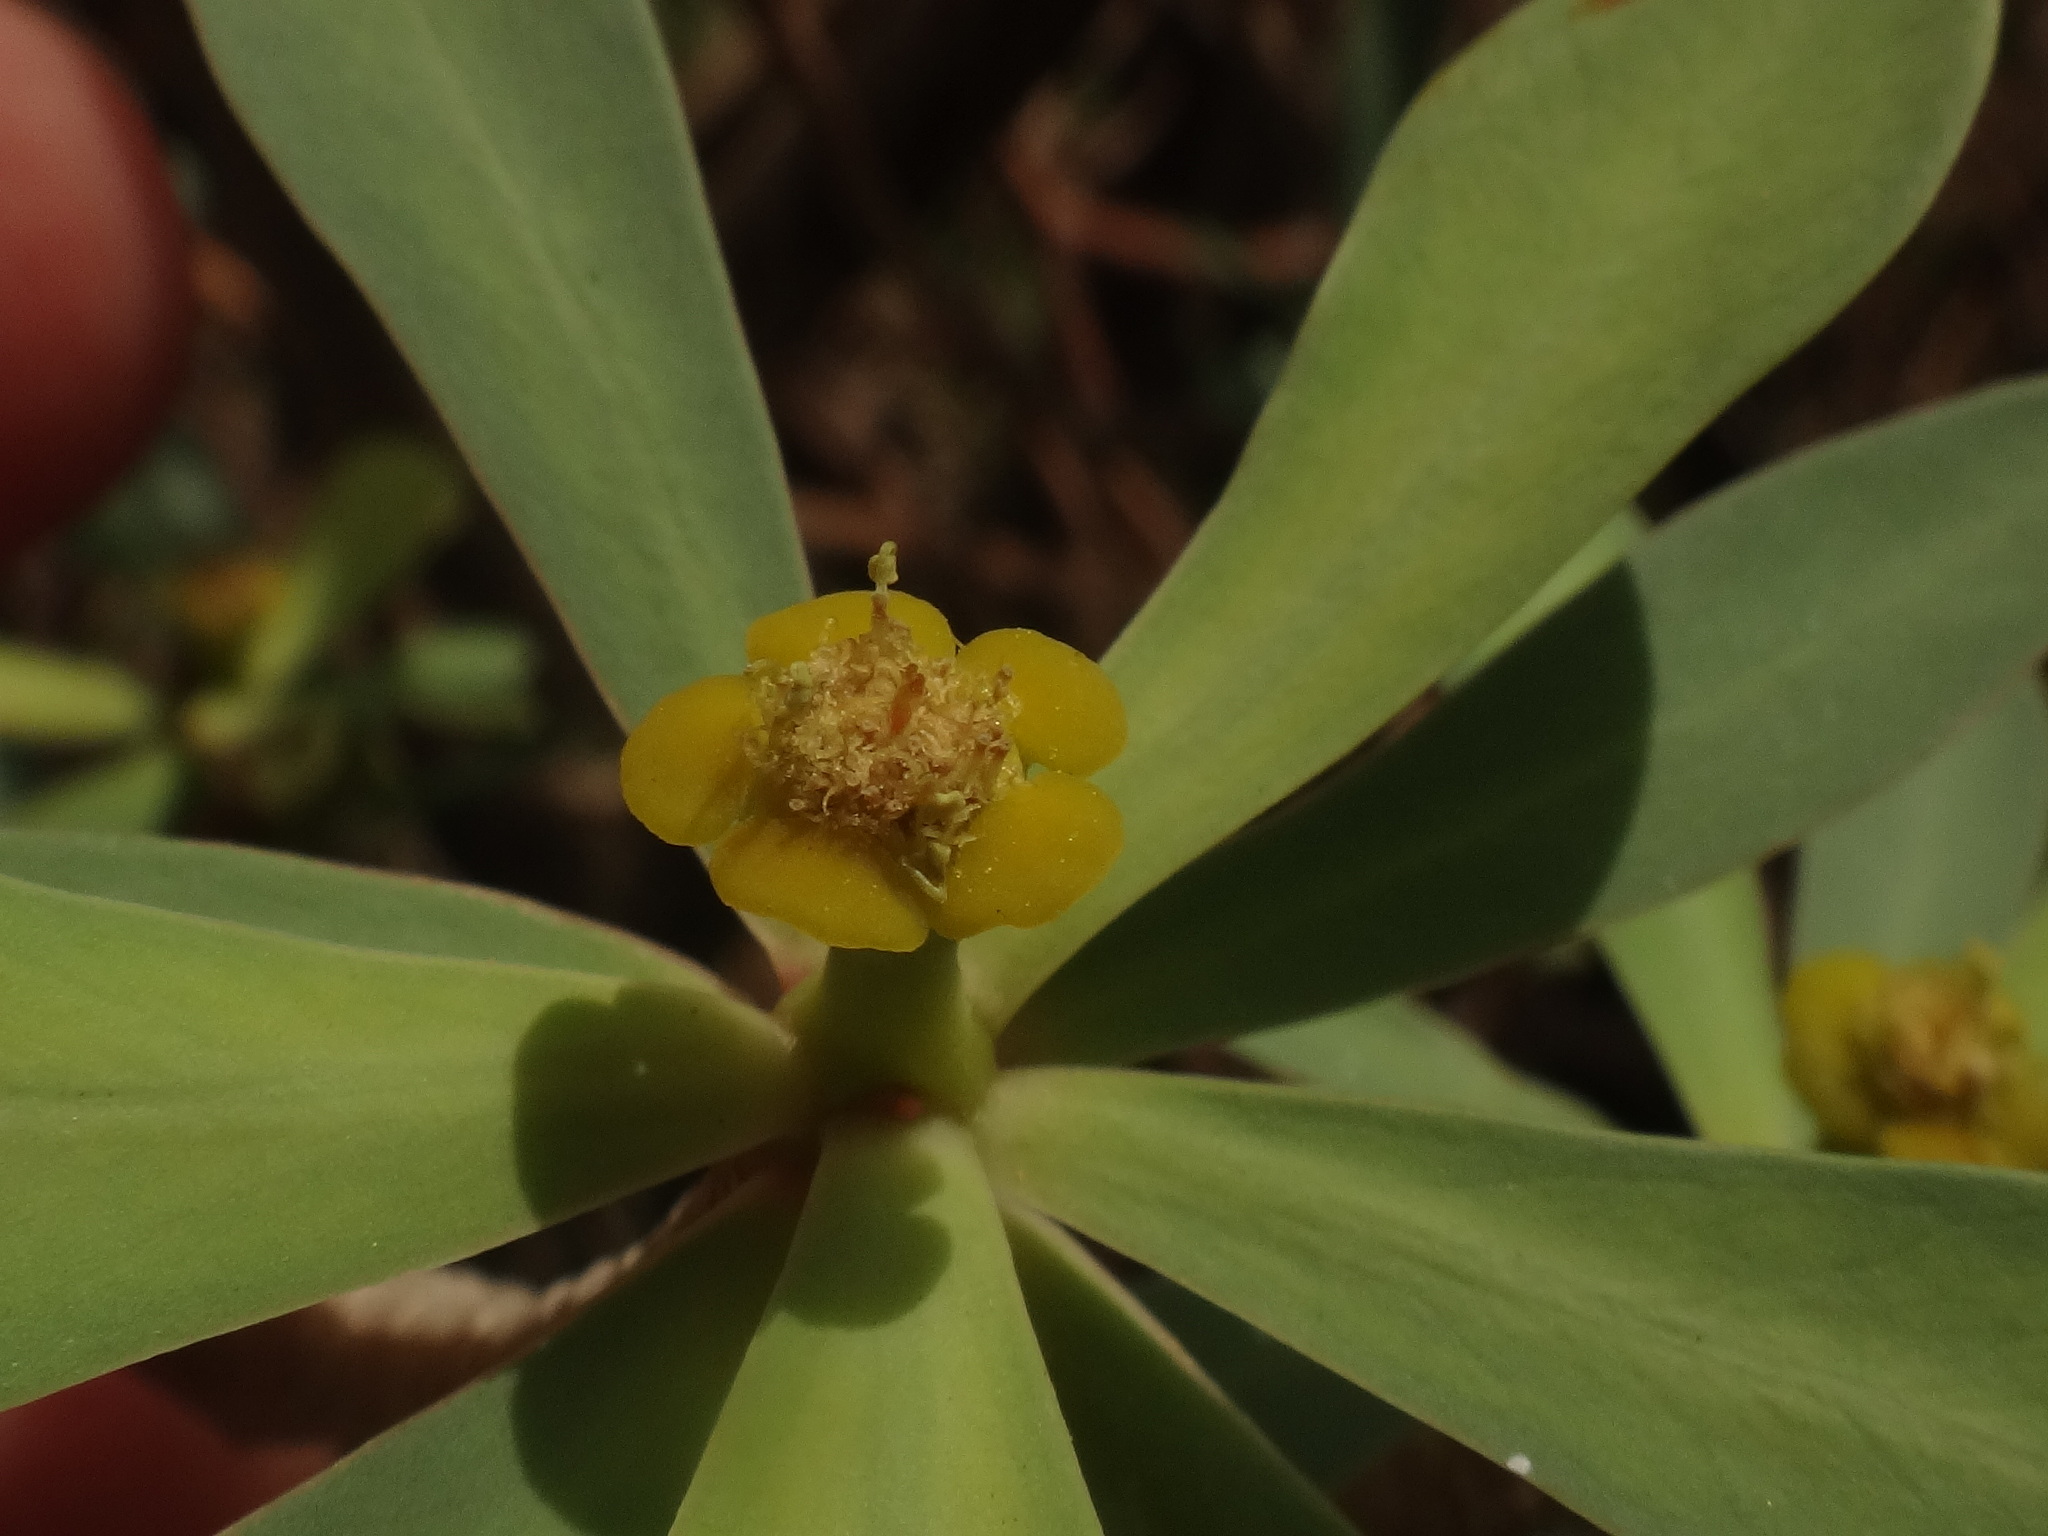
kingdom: Plantae
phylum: Tracheophyta
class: Magnoliopsida
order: Malpighiales
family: Euphorbiaceae
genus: Euphorbia
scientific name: Euphorbia balsamifera
